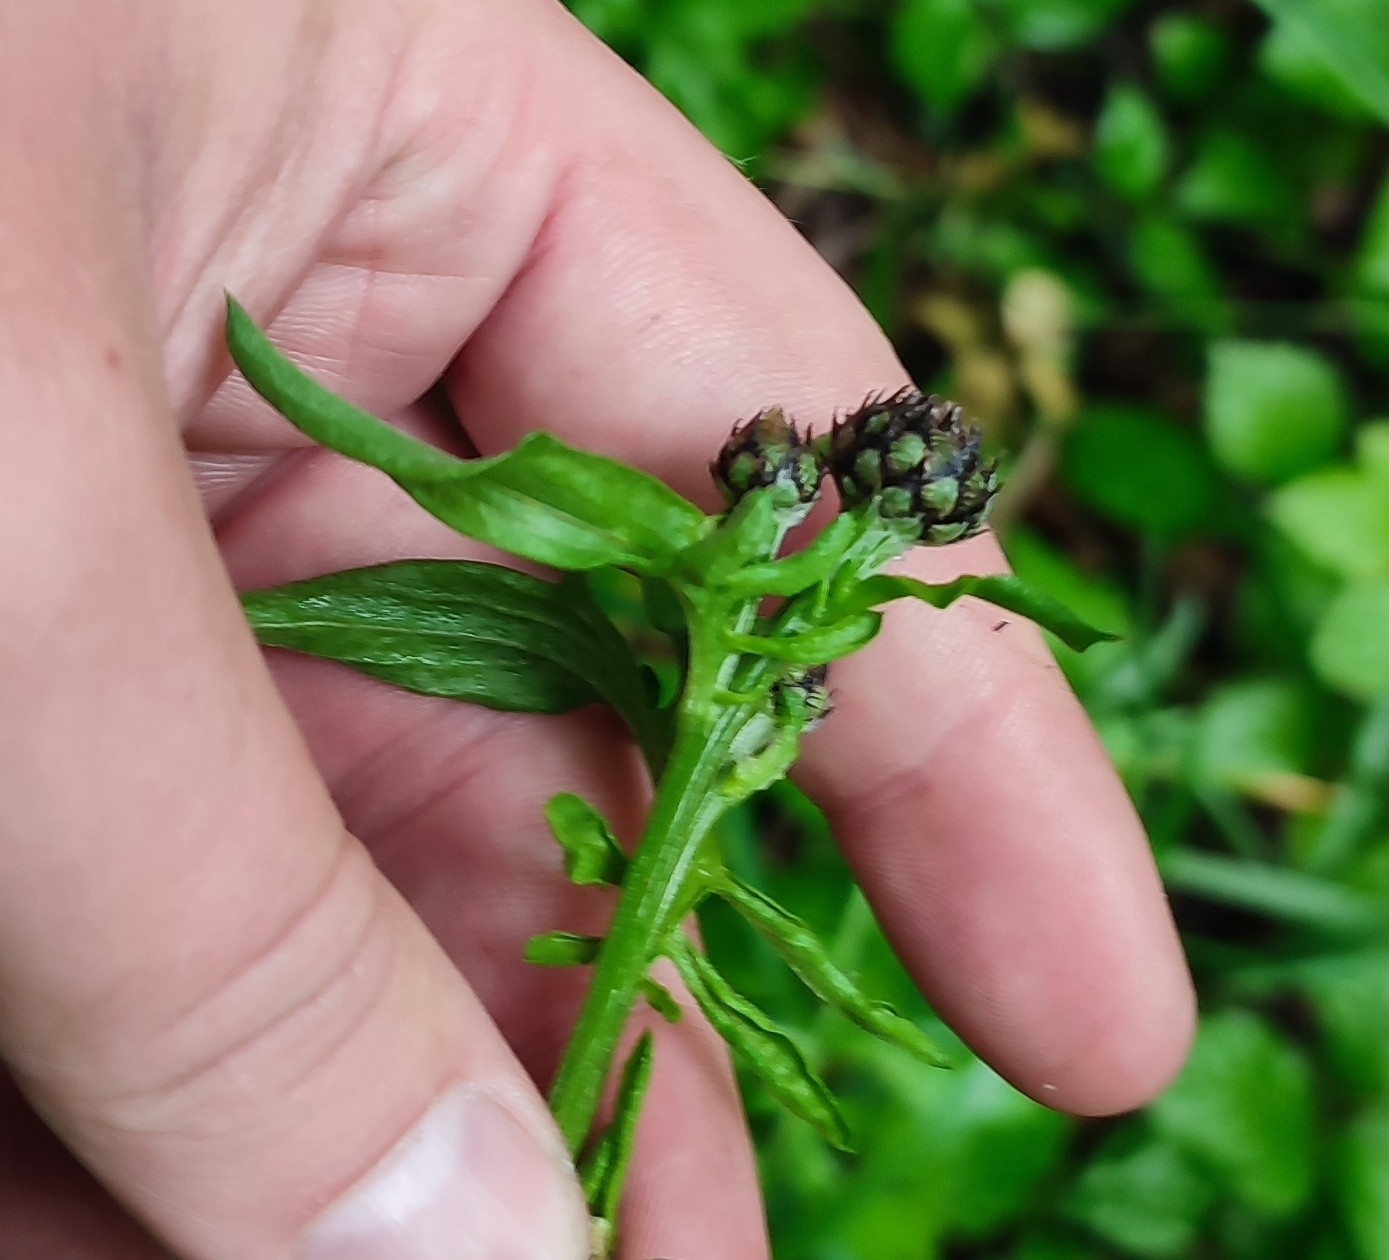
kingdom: Plantae
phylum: Tracheophyta
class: Magnoliopsida
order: Asterales
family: Asteraceae
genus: Centaurea
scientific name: Centaurea scabiosa
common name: Greater knapweed
